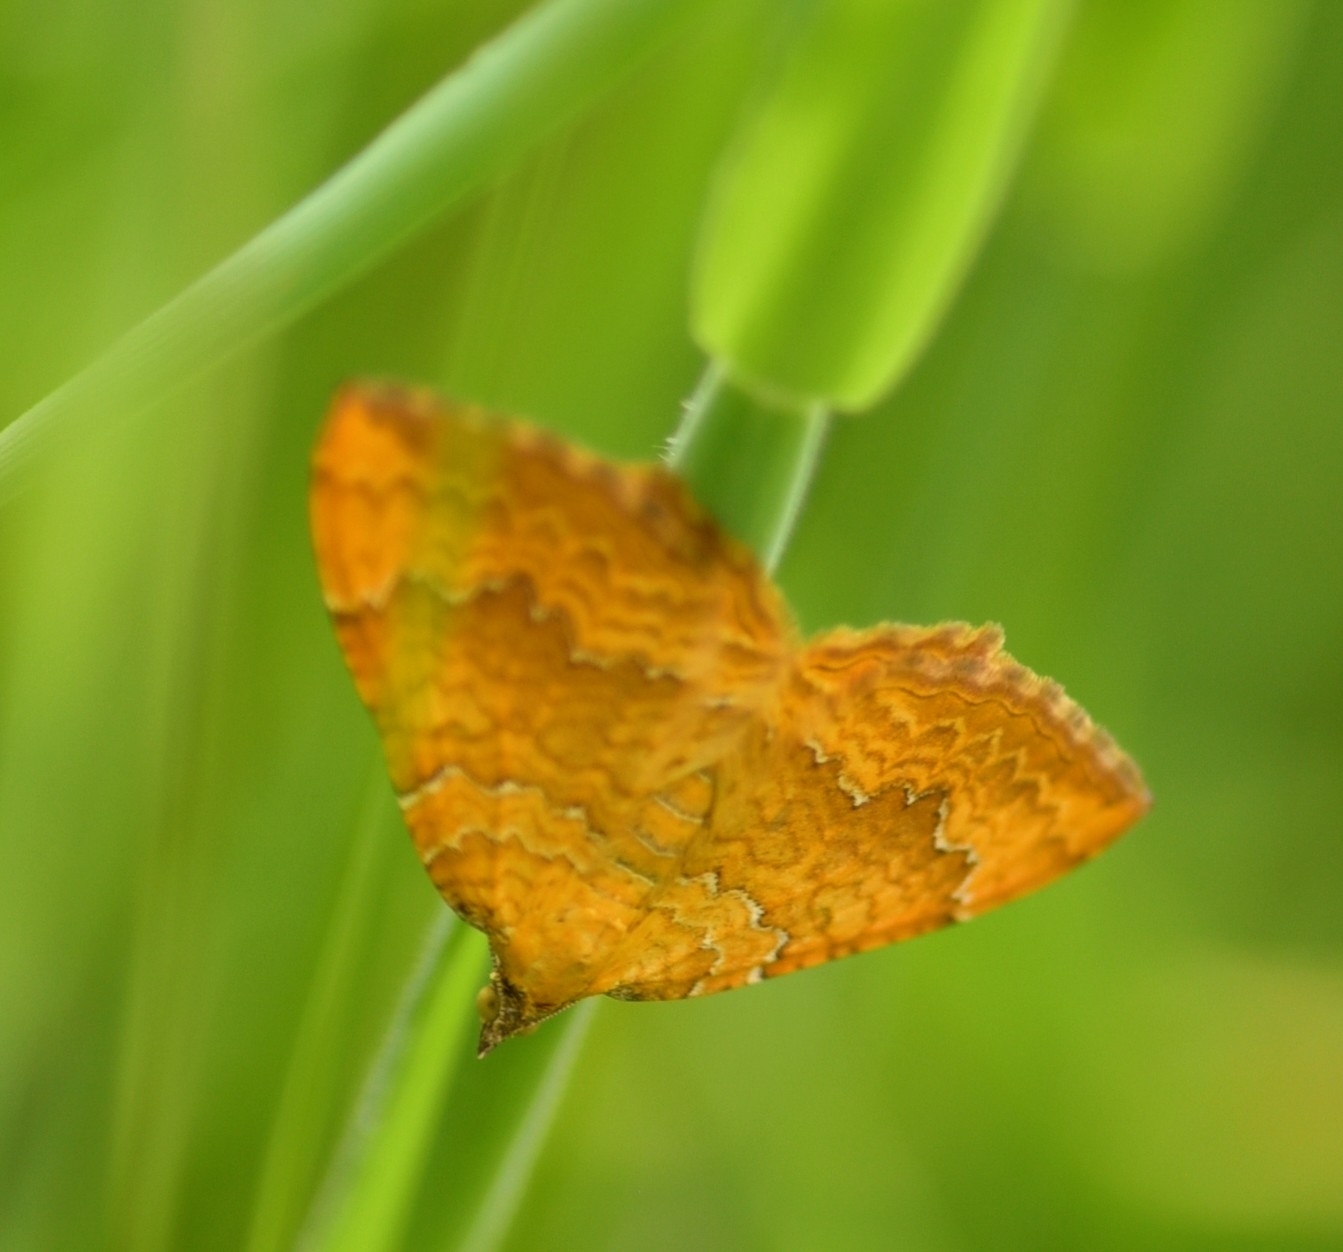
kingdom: Animalia
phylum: Arthropoda
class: Insecta
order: Lepidoptera
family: Geometridae
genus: Camptogramma
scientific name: Camptogramma bilineata
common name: Yellow shell
